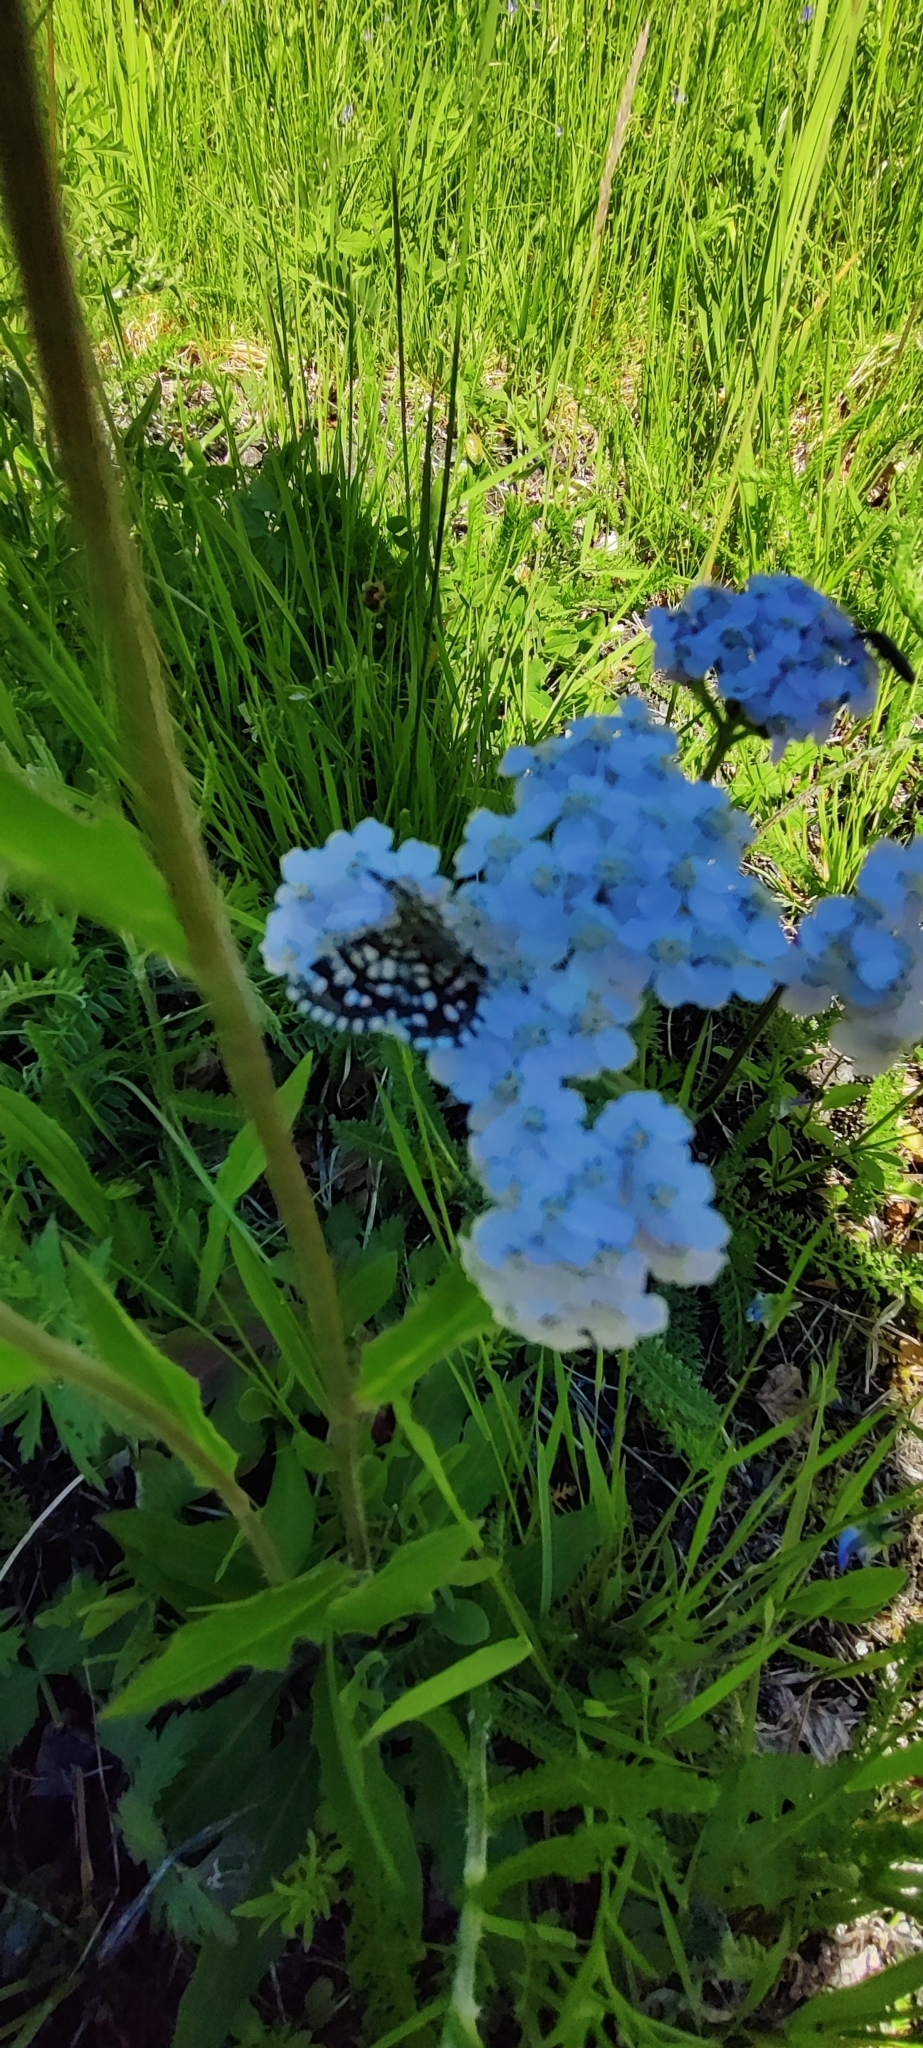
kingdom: Plantae
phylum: Tracheophyta
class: Magnoliopsida
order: Asterales
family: Asteraceae
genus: Achillea
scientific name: Achillea millefolium
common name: Yarrow
